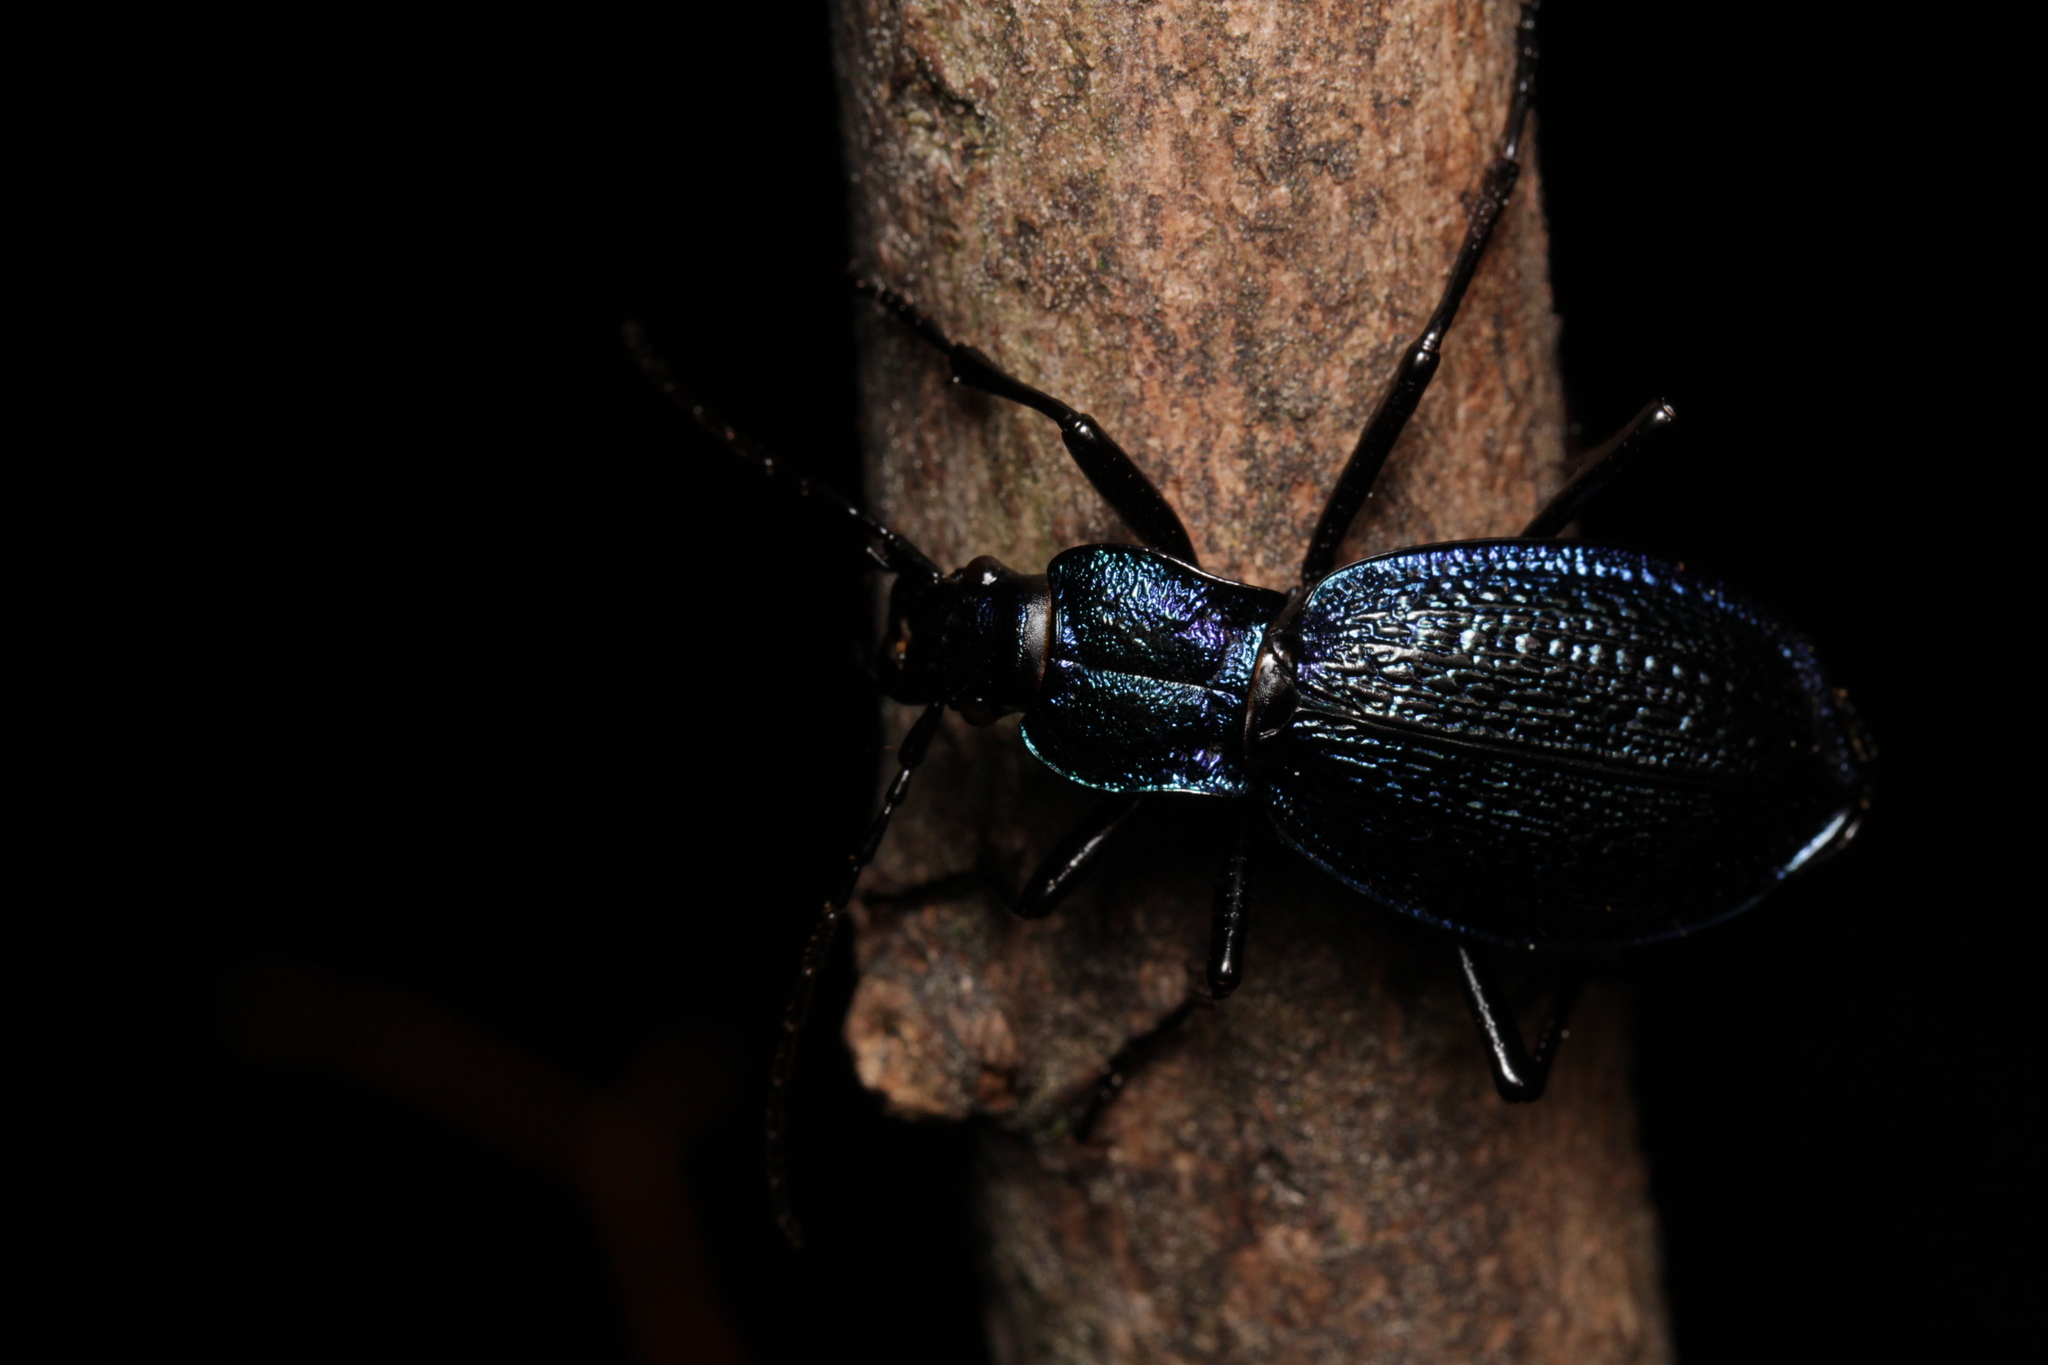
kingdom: Animalia
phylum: Arthropoda
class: Insecta
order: Coleoptera
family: Carabidae
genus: Carabus
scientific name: Carabus intricatus
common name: Blue ground beetle
